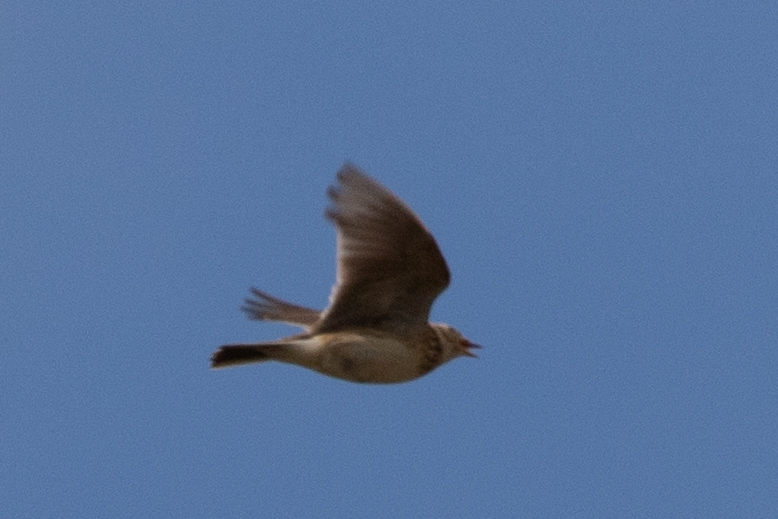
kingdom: Animalia
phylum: Chordata
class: Aves
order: Passeriformes
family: Alaudidae
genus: Alauda
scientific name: Alauda arvensis
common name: Eurasian skylark
